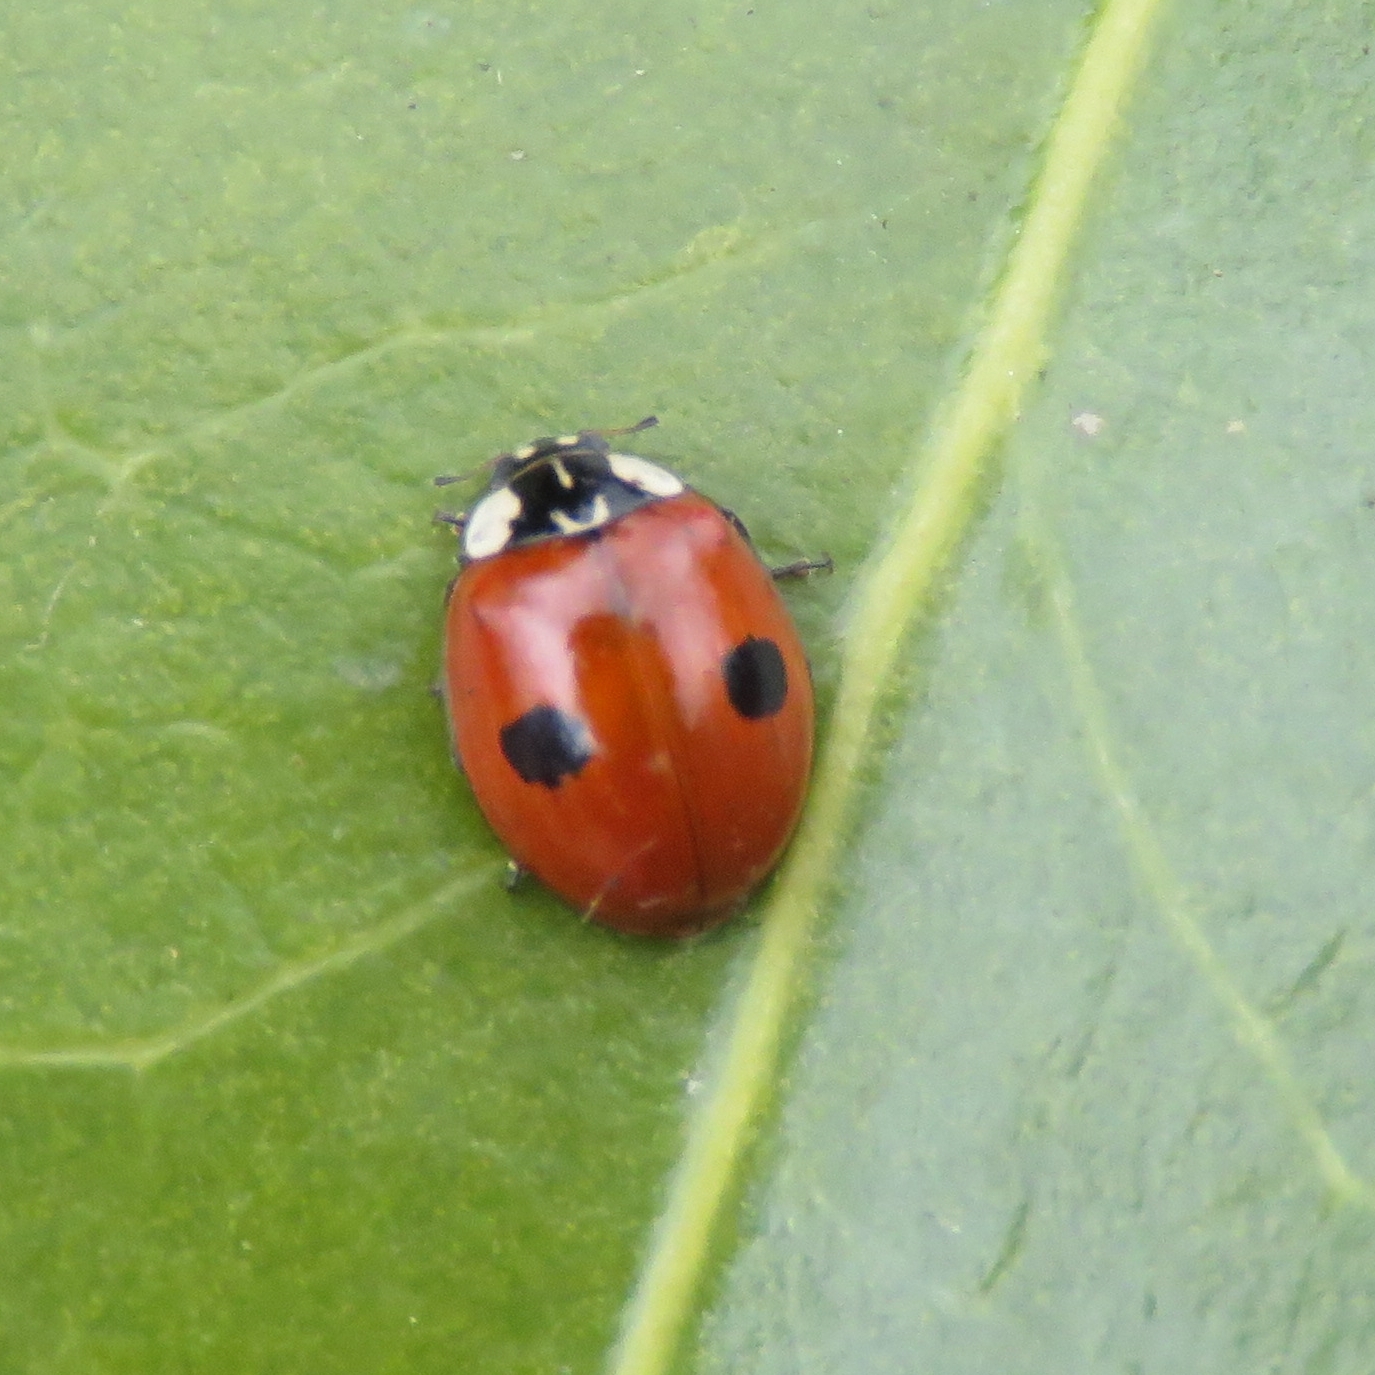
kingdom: Animalia
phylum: Arthropoda
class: Insecta
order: Coleoptera
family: Coccinellidae
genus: Adalia
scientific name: Adalia bipunctata
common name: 2-spot ladybird
